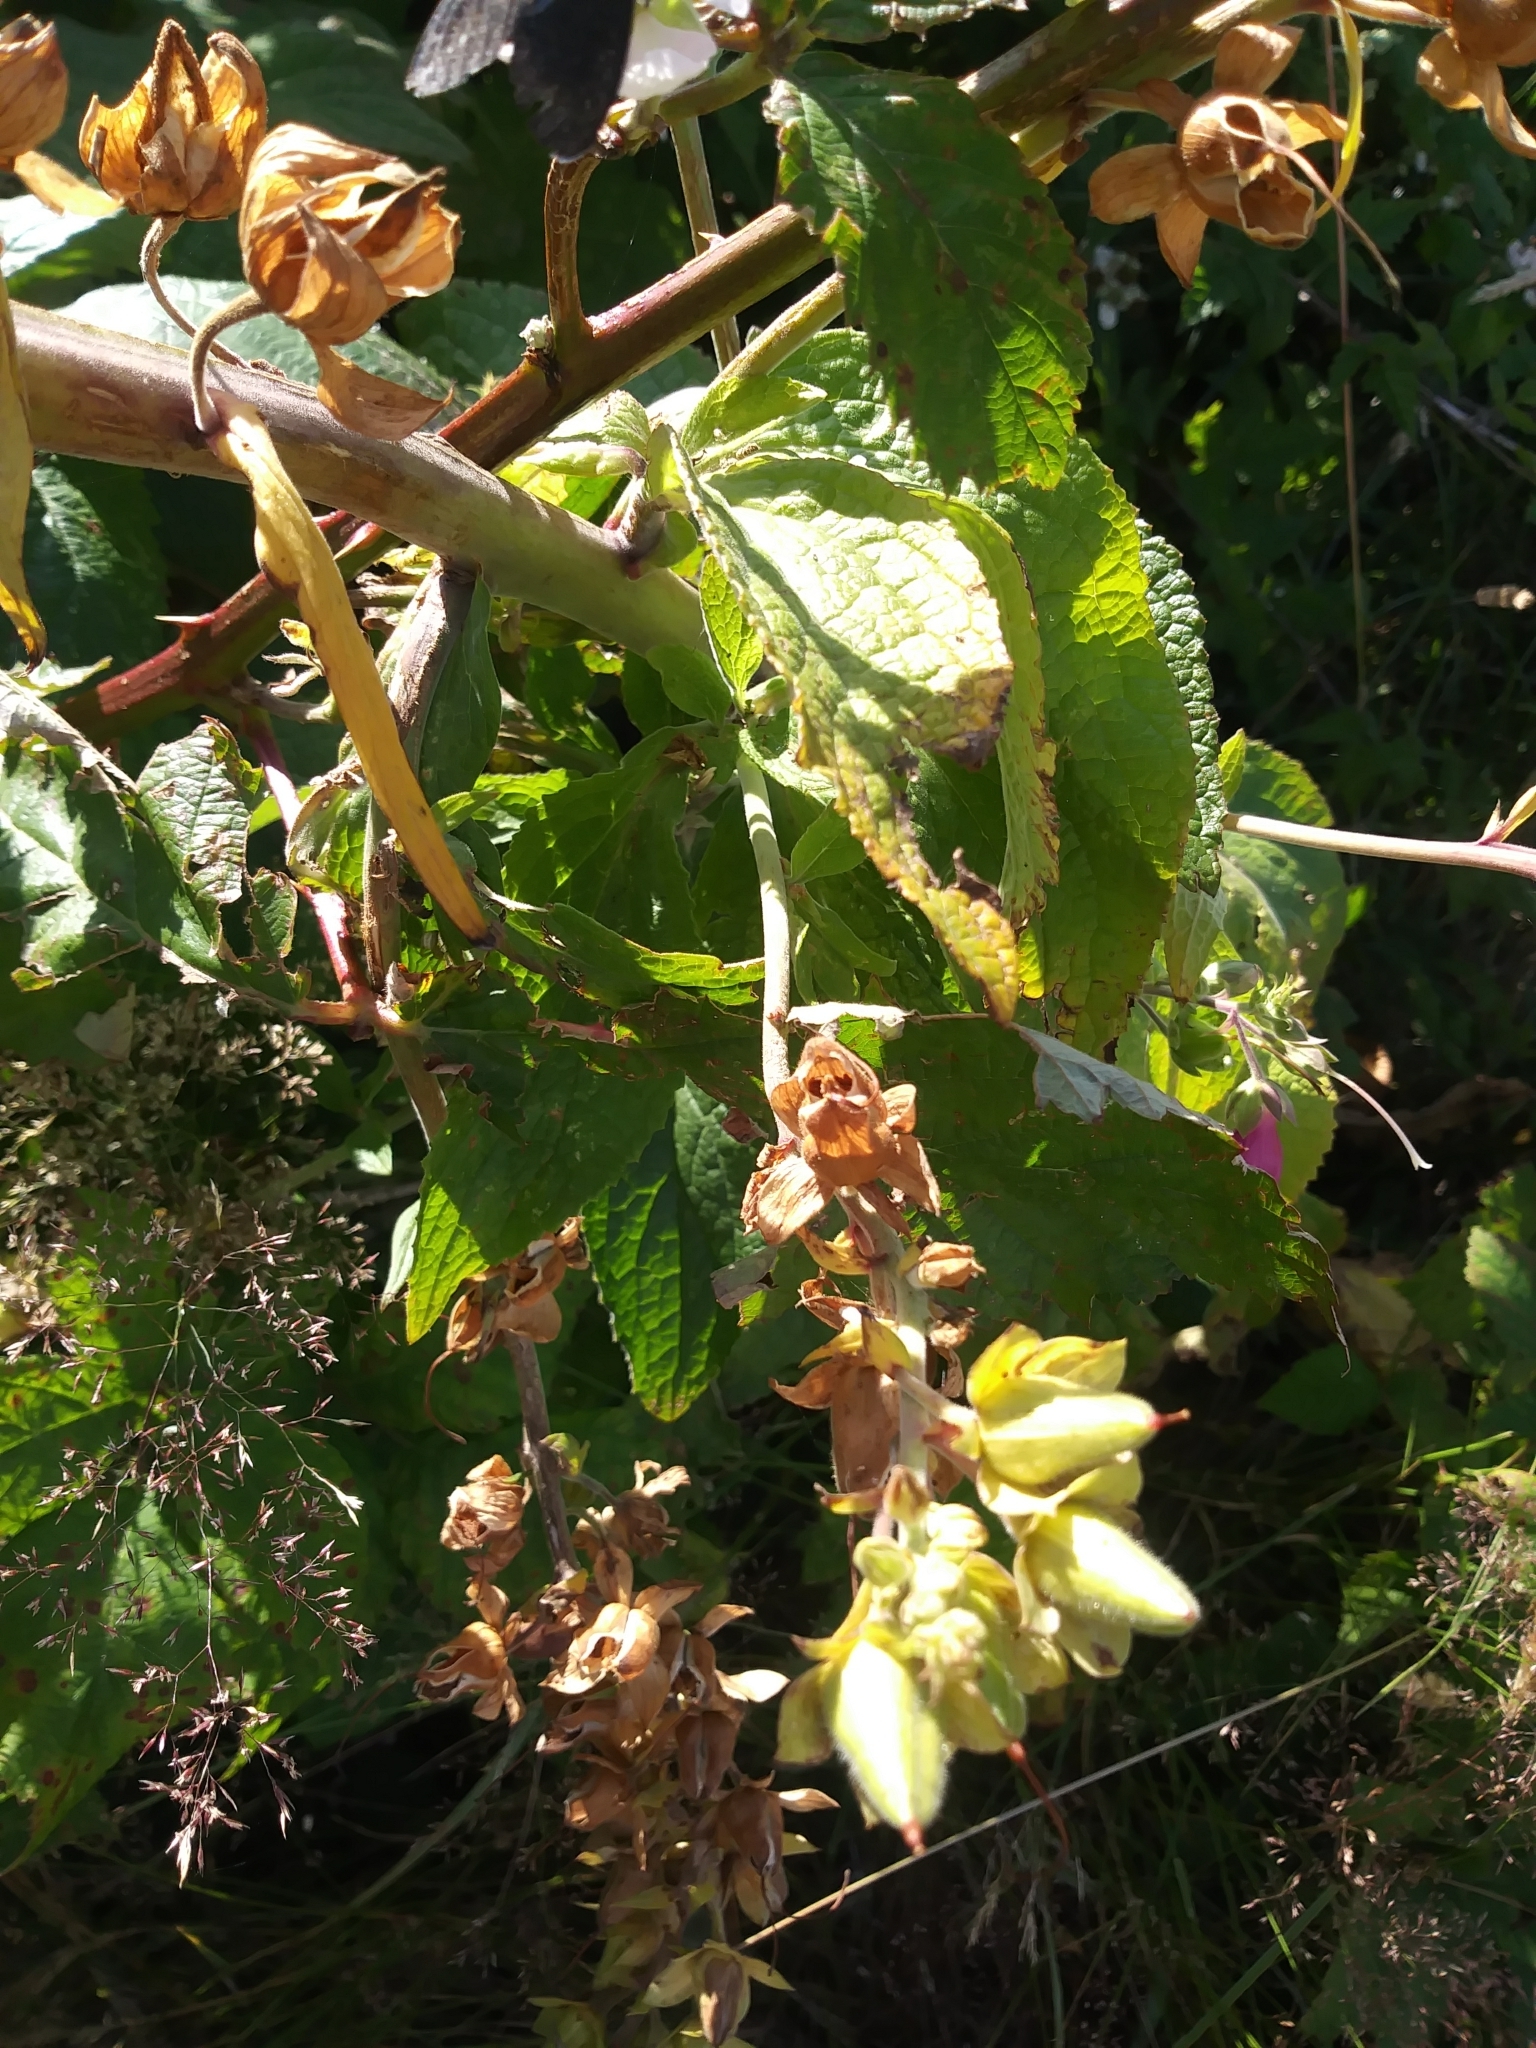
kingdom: Plantae
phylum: Tracheophyta
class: Magnoliopsida
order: Lamiales
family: Plantaginaceae
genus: Digitalis
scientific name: Digitalis purpurea
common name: Foxglove
